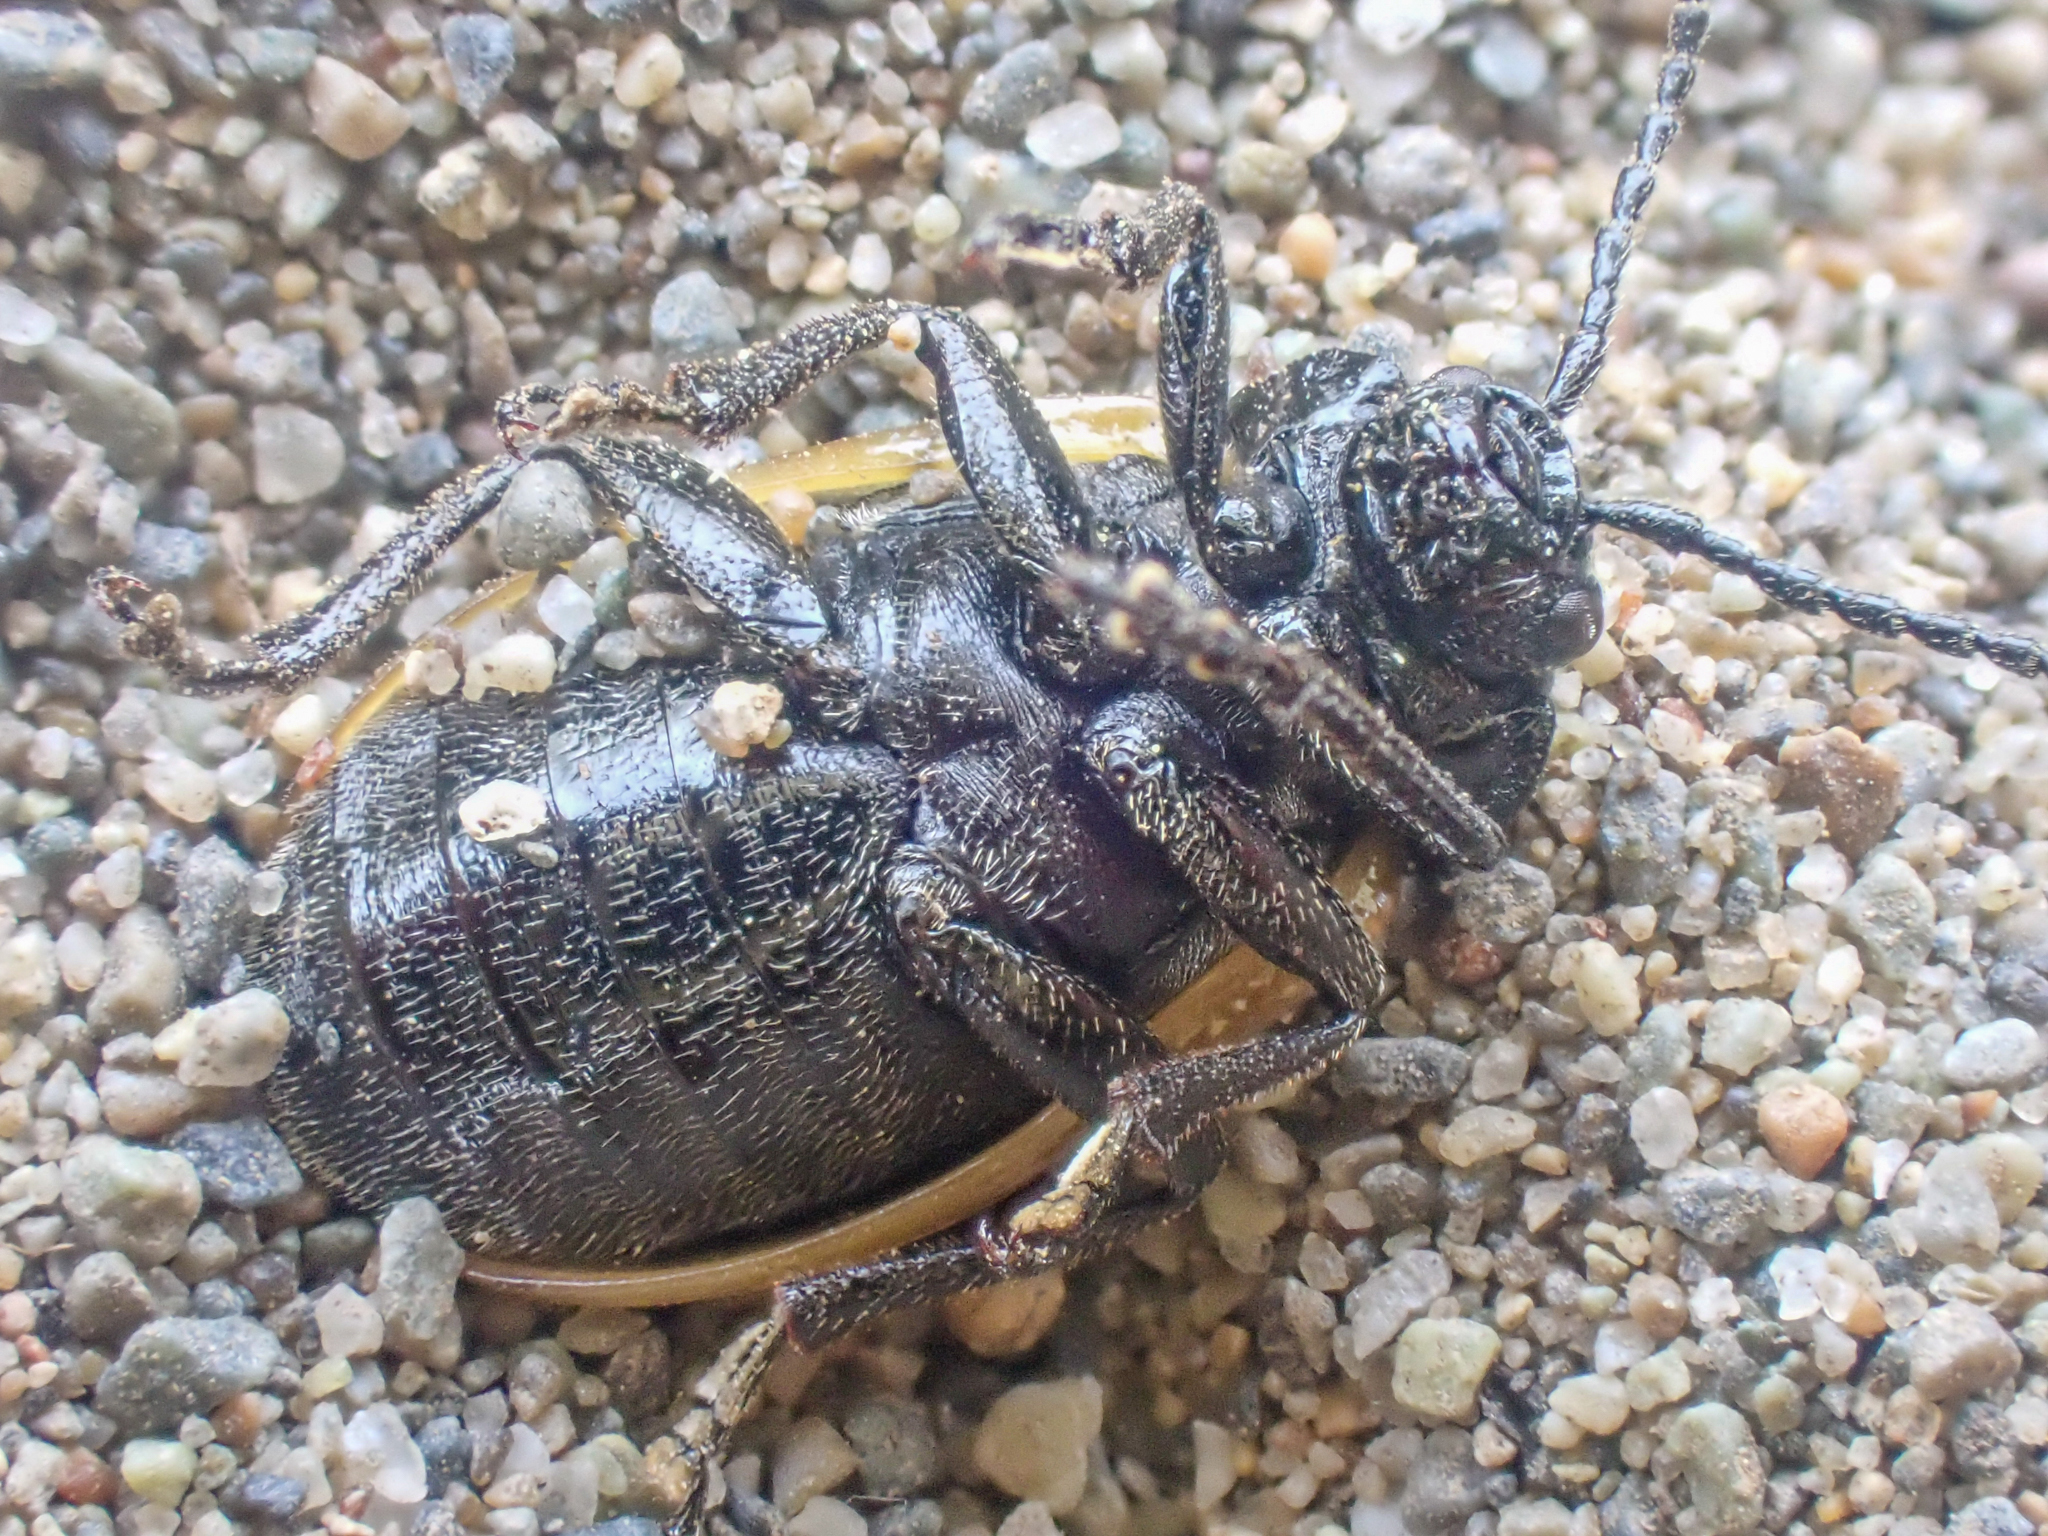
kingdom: Animalia
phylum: Arthropoda
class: Insecta
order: Coleoptera
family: Chrysomelidae
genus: Galeruca
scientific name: Galeruca rudis
